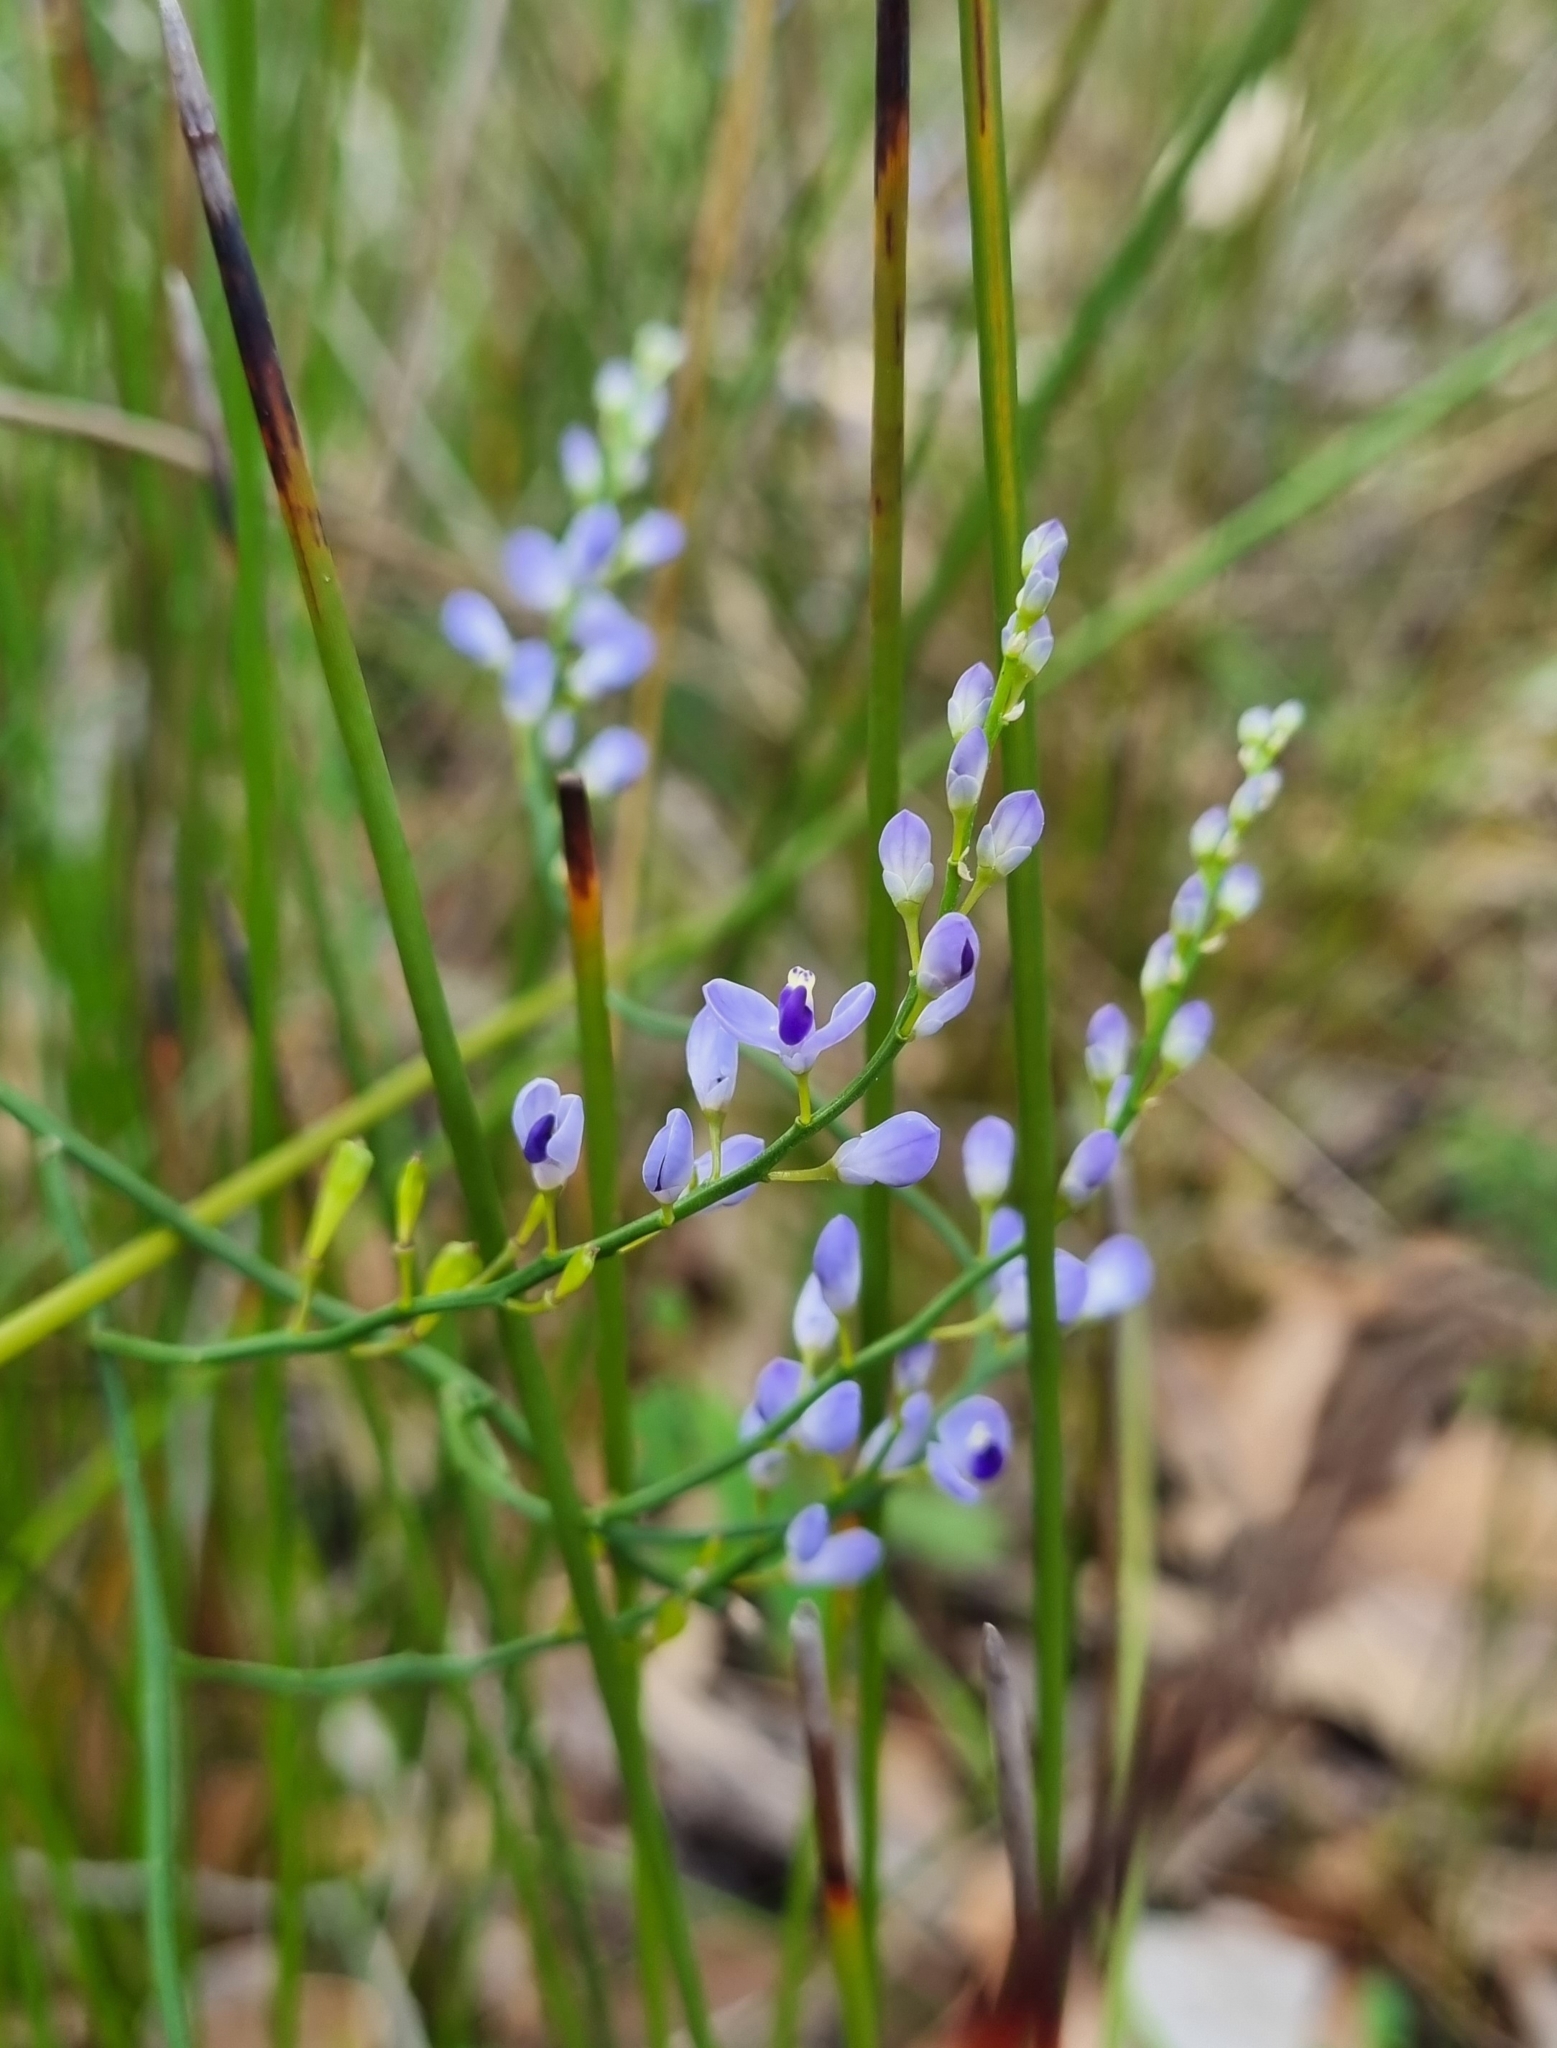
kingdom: Plantae
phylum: Tracheophyta
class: Magnoliopsida
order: Fabales
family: Polygalaceae
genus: Comesperma
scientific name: Comesperma volubile
